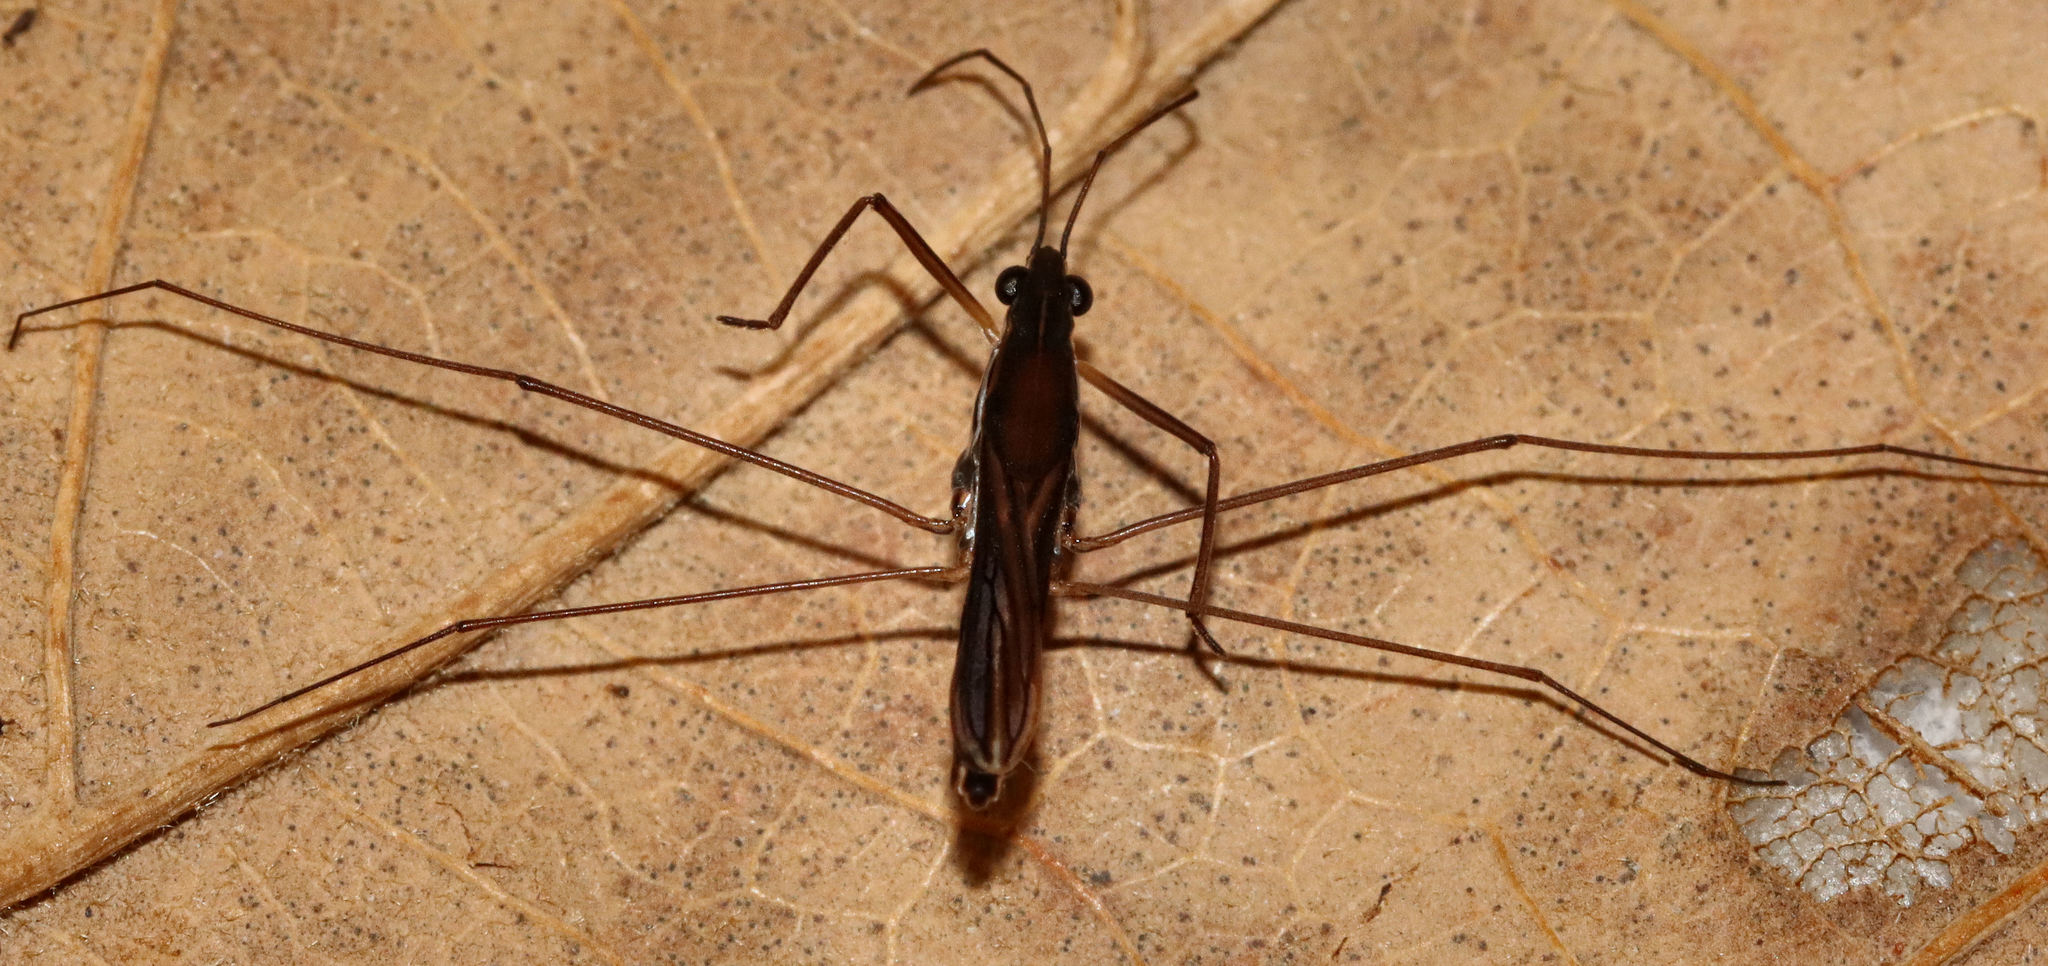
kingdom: Animalia
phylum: Arthropoda
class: Insecta
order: Hemiptera
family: Gerridae
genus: Limnoporus
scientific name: Limnoporus canaliculatus
